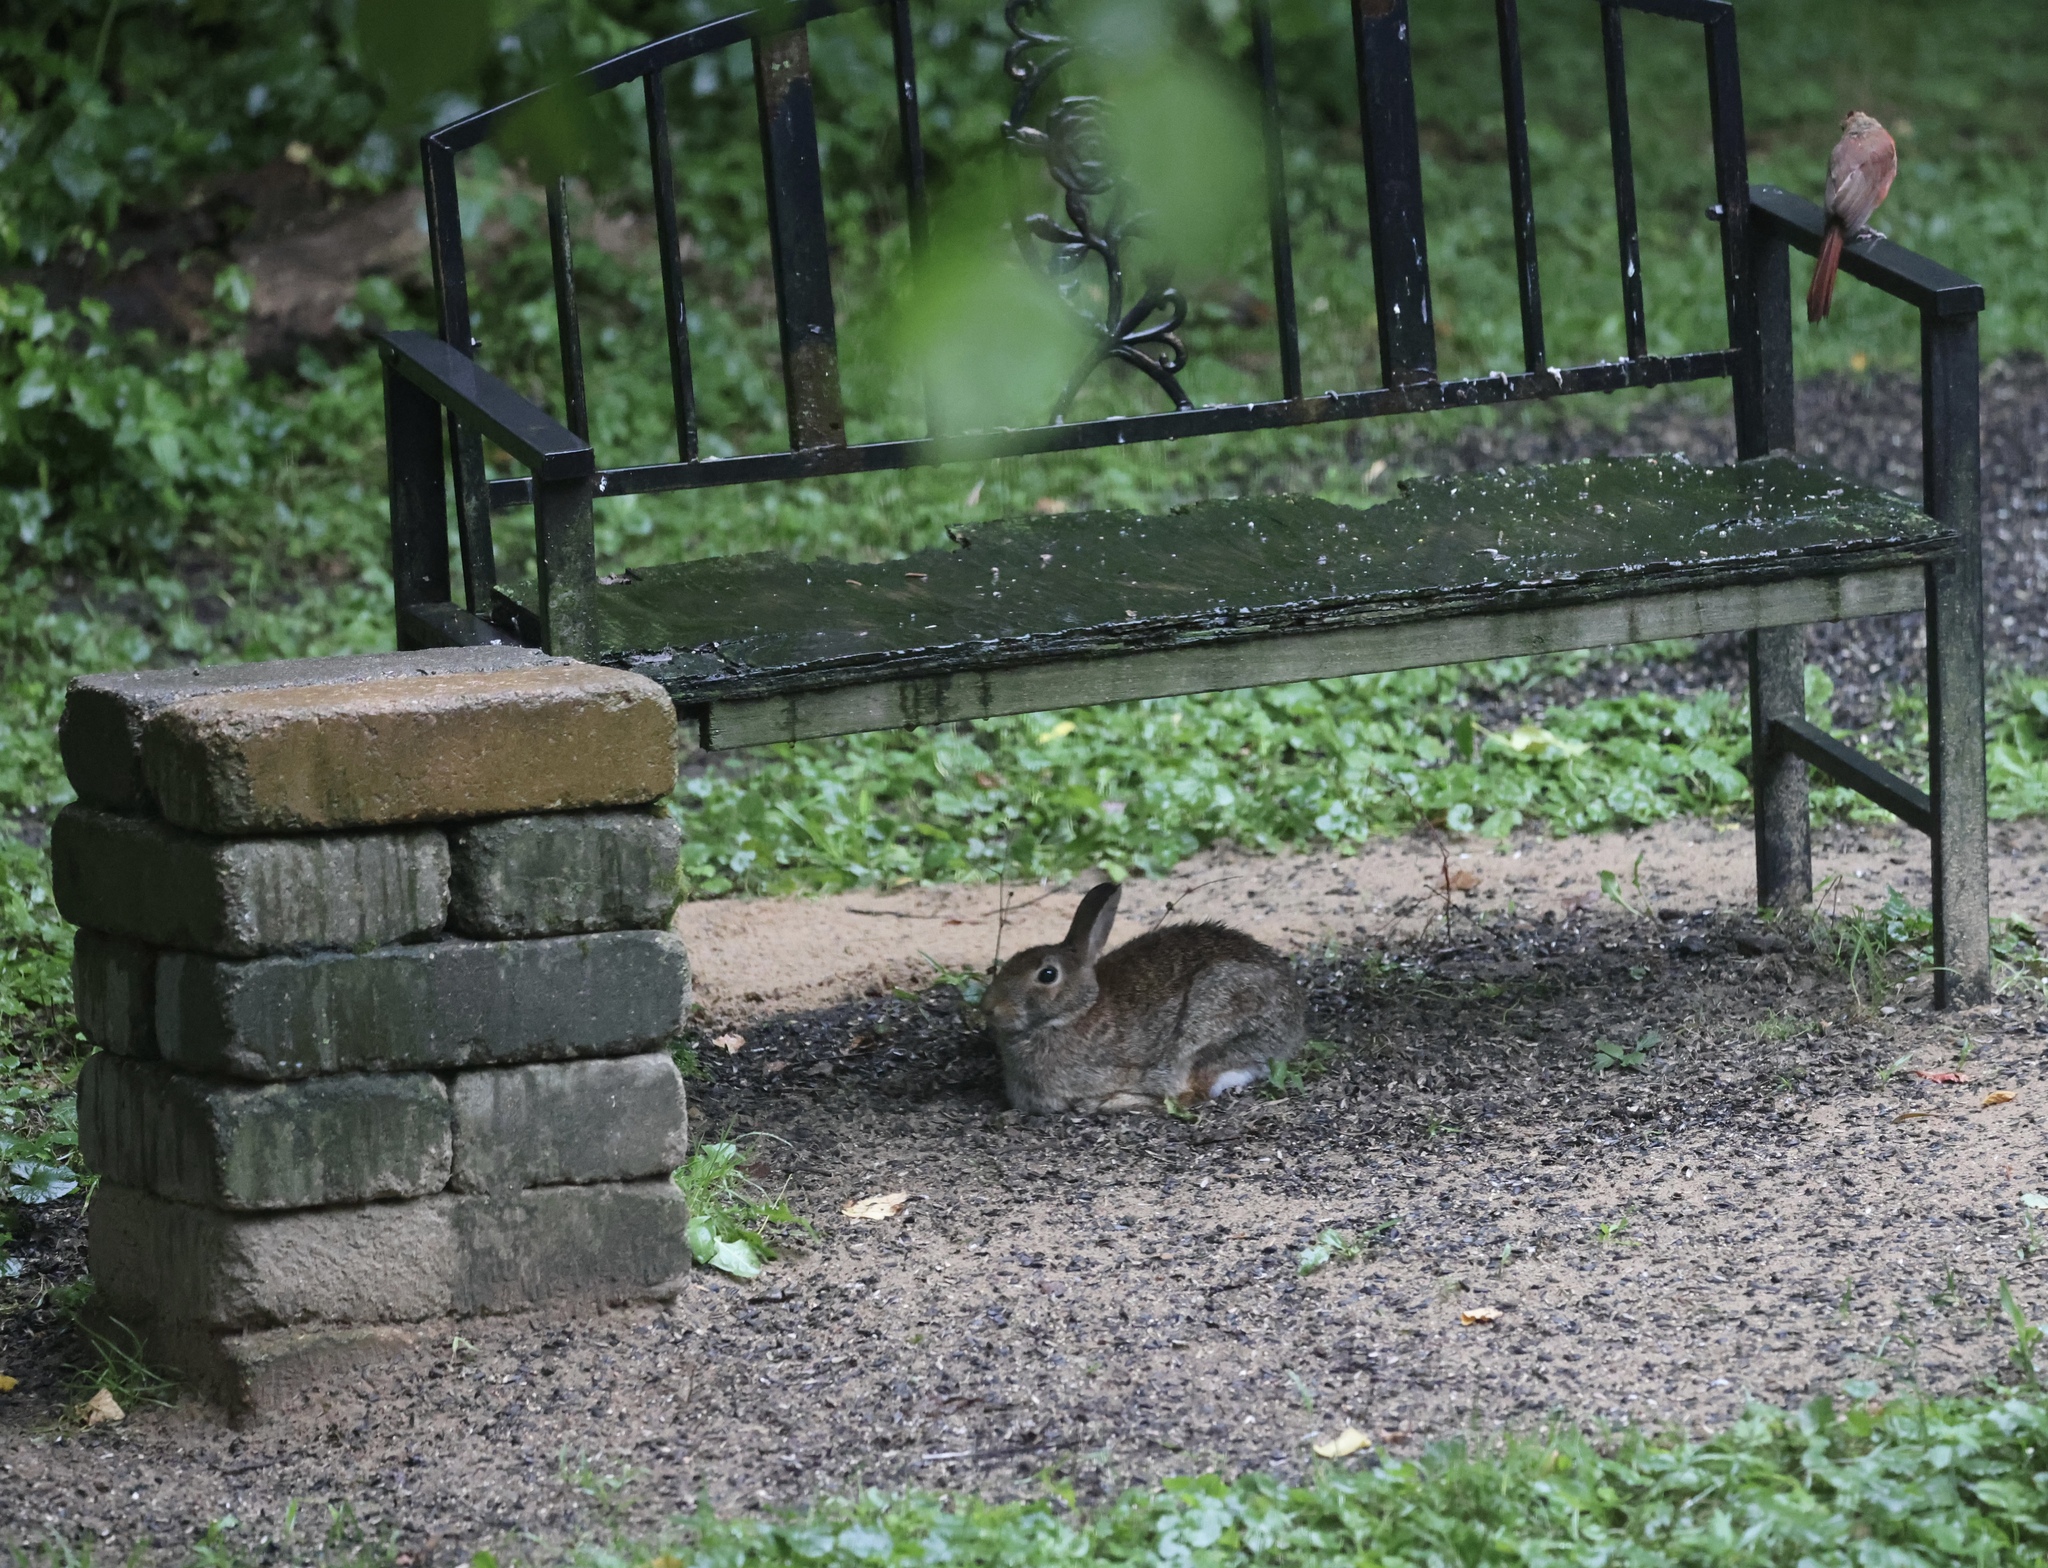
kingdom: Animalia
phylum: Chordata
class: Mammalia
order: Lagomorpha
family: Leporidae
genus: Sylvilagus
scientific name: Sylvilagus floridanus
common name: Eastern cottontail
